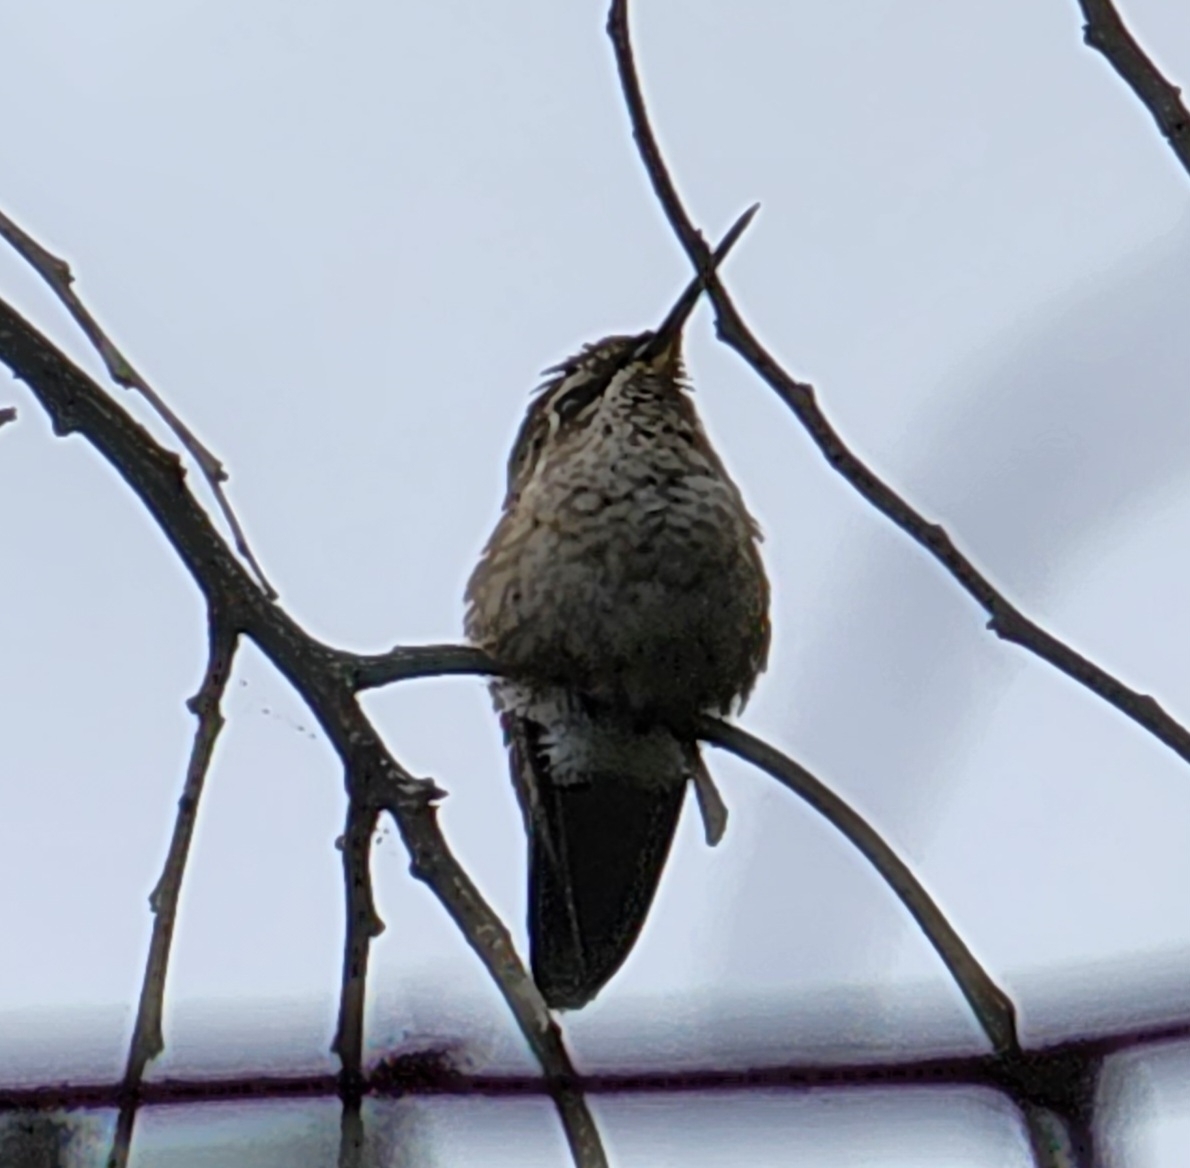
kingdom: Animalia
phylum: Chordata
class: Aves
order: Apodiformes
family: Trochilidae
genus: Calypte
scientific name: Calypte anna
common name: Anna's hummingbird
